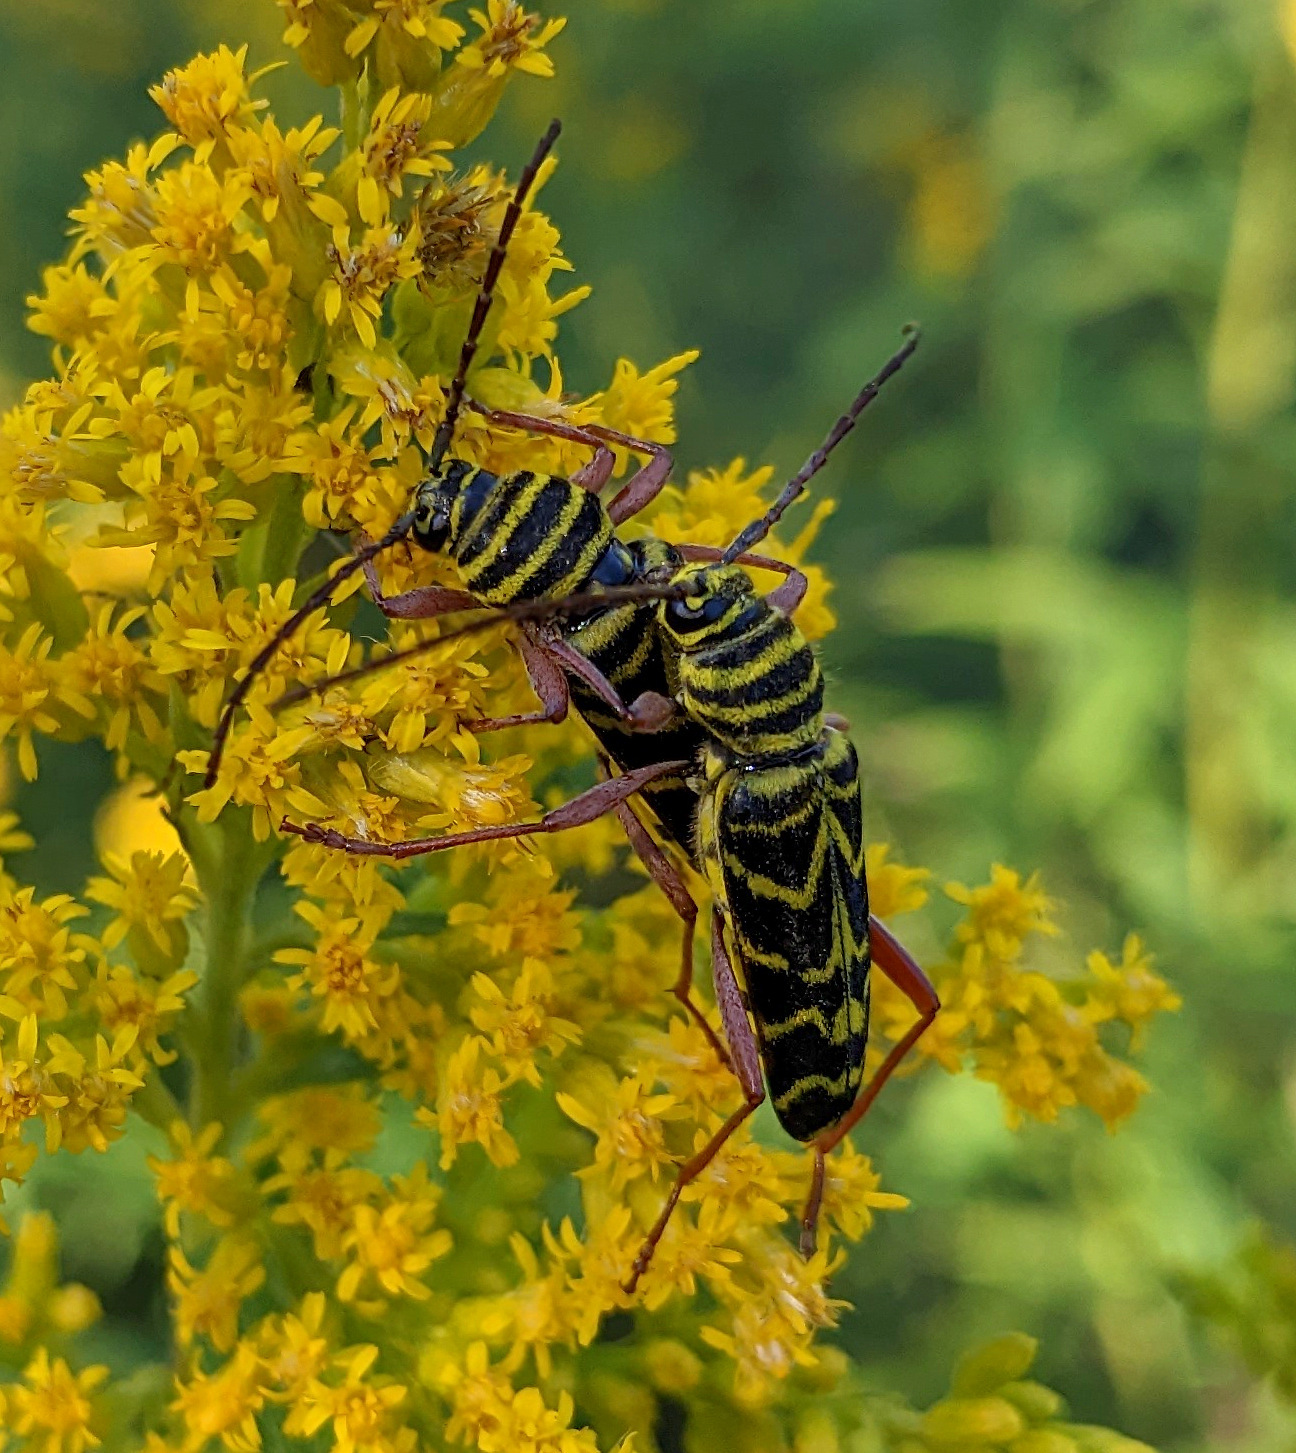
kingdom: Animalia
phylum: Arthropoda
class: Insecta
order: Coleoptera
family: Cerambycidae
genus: Megacyllene
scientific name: Megacyllene robiniae
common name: Locust borer
